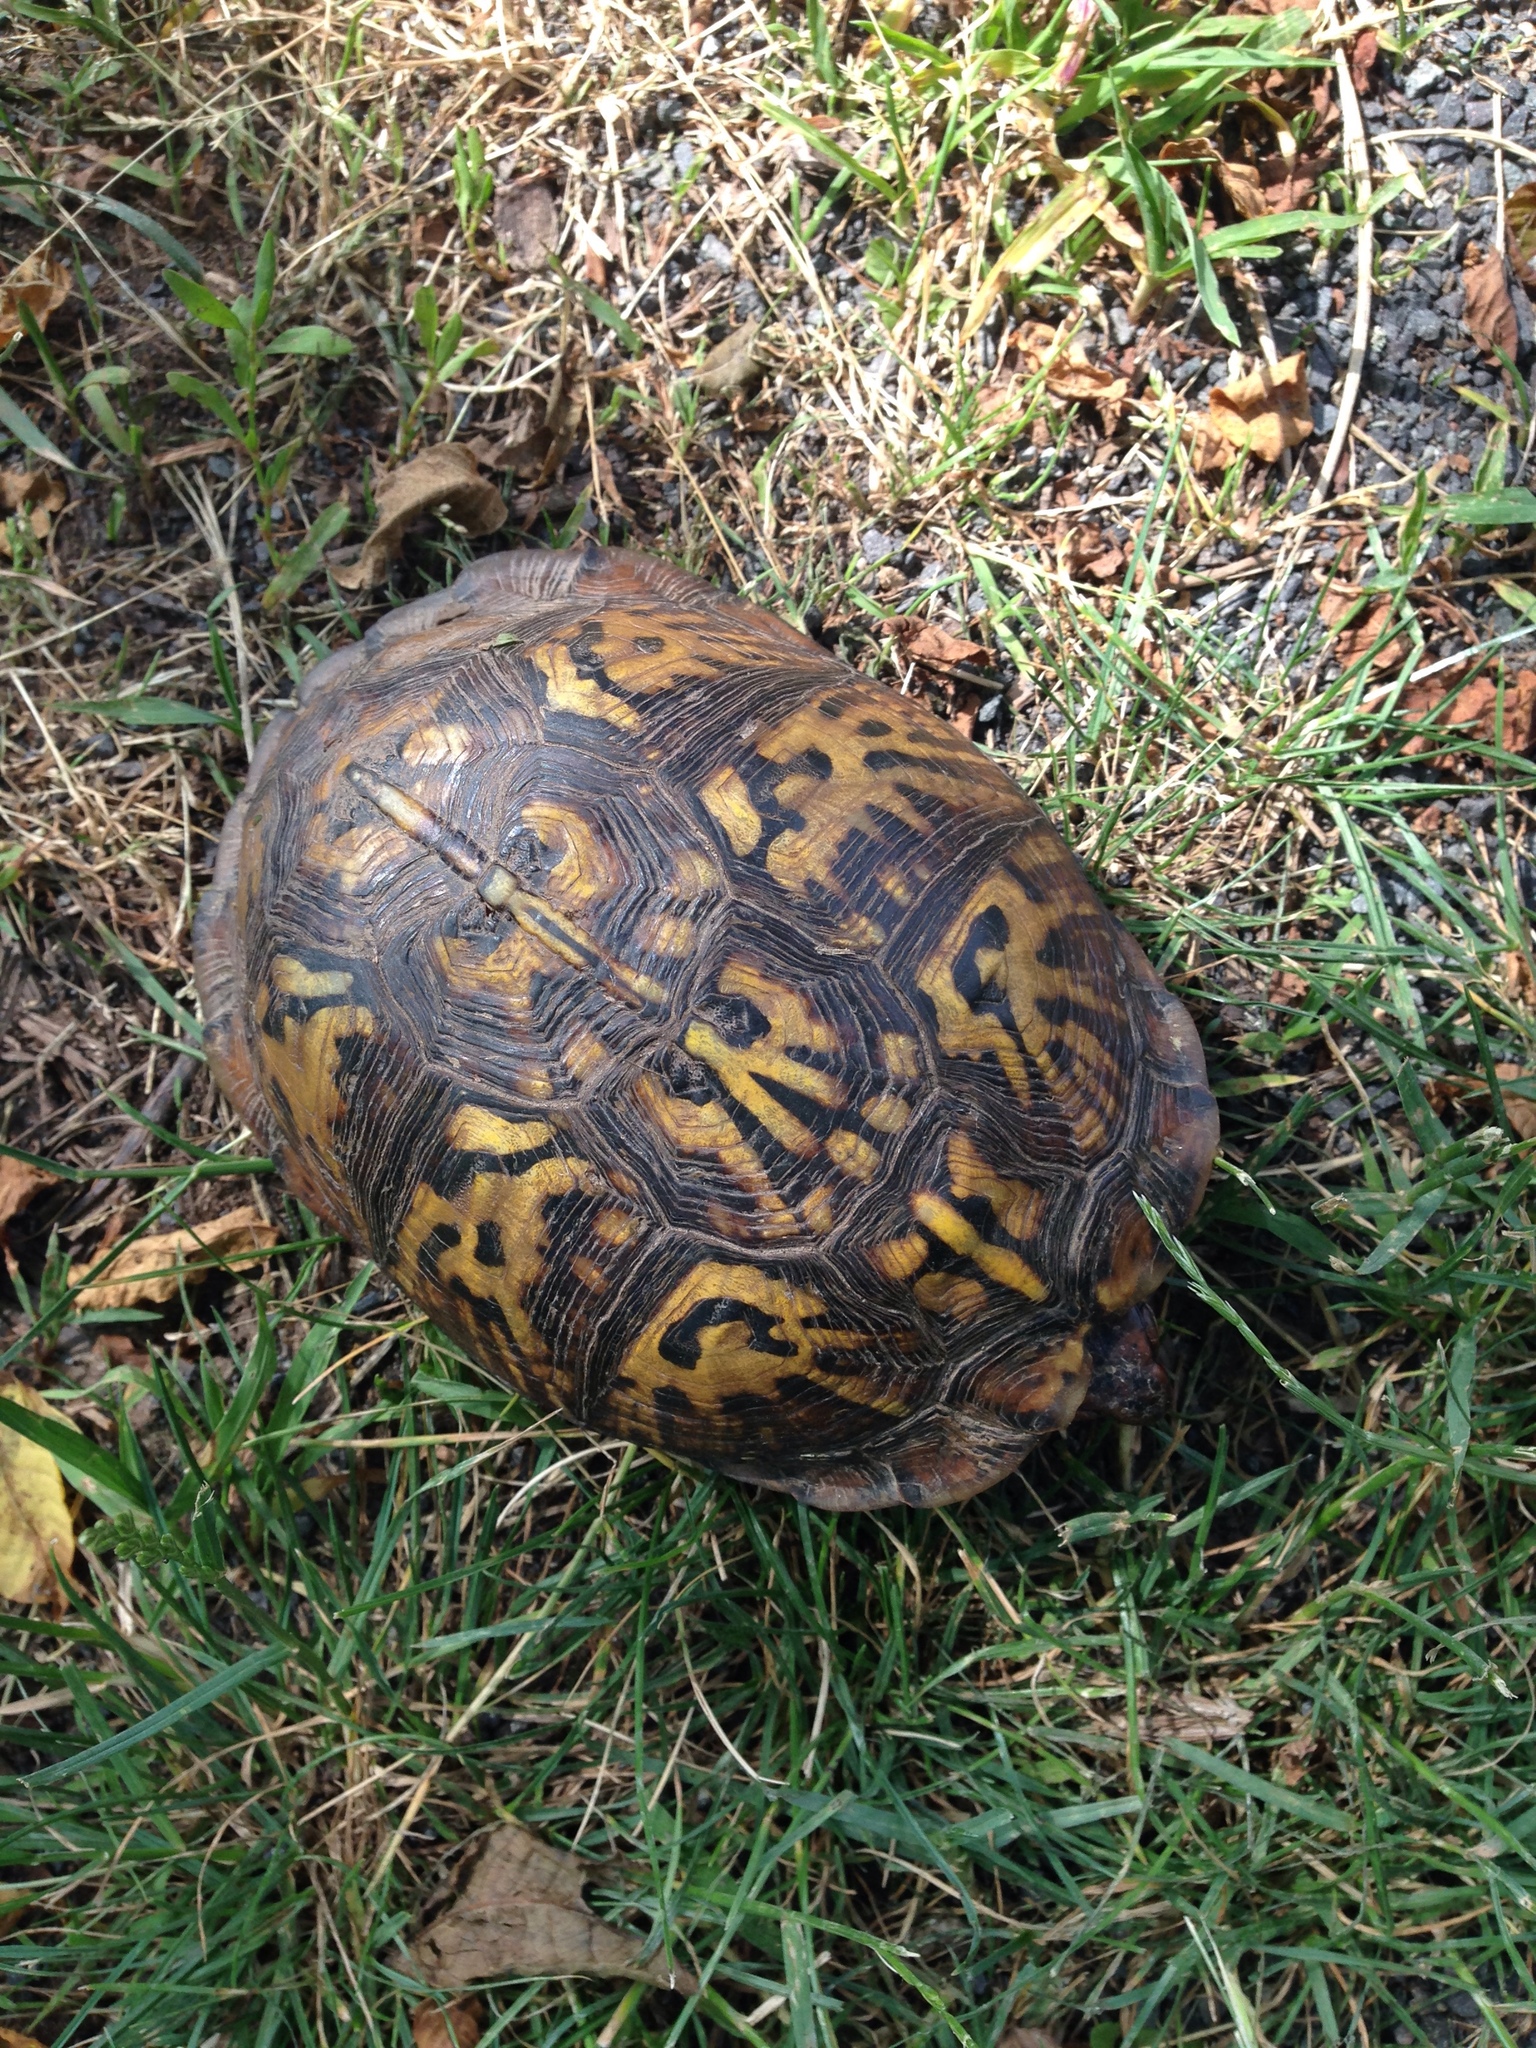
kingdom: Animalia
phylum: Chordata
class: Testudines
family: Emydidae
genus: Terrapene
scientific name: Terrapene carolina
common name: Common box turtle
